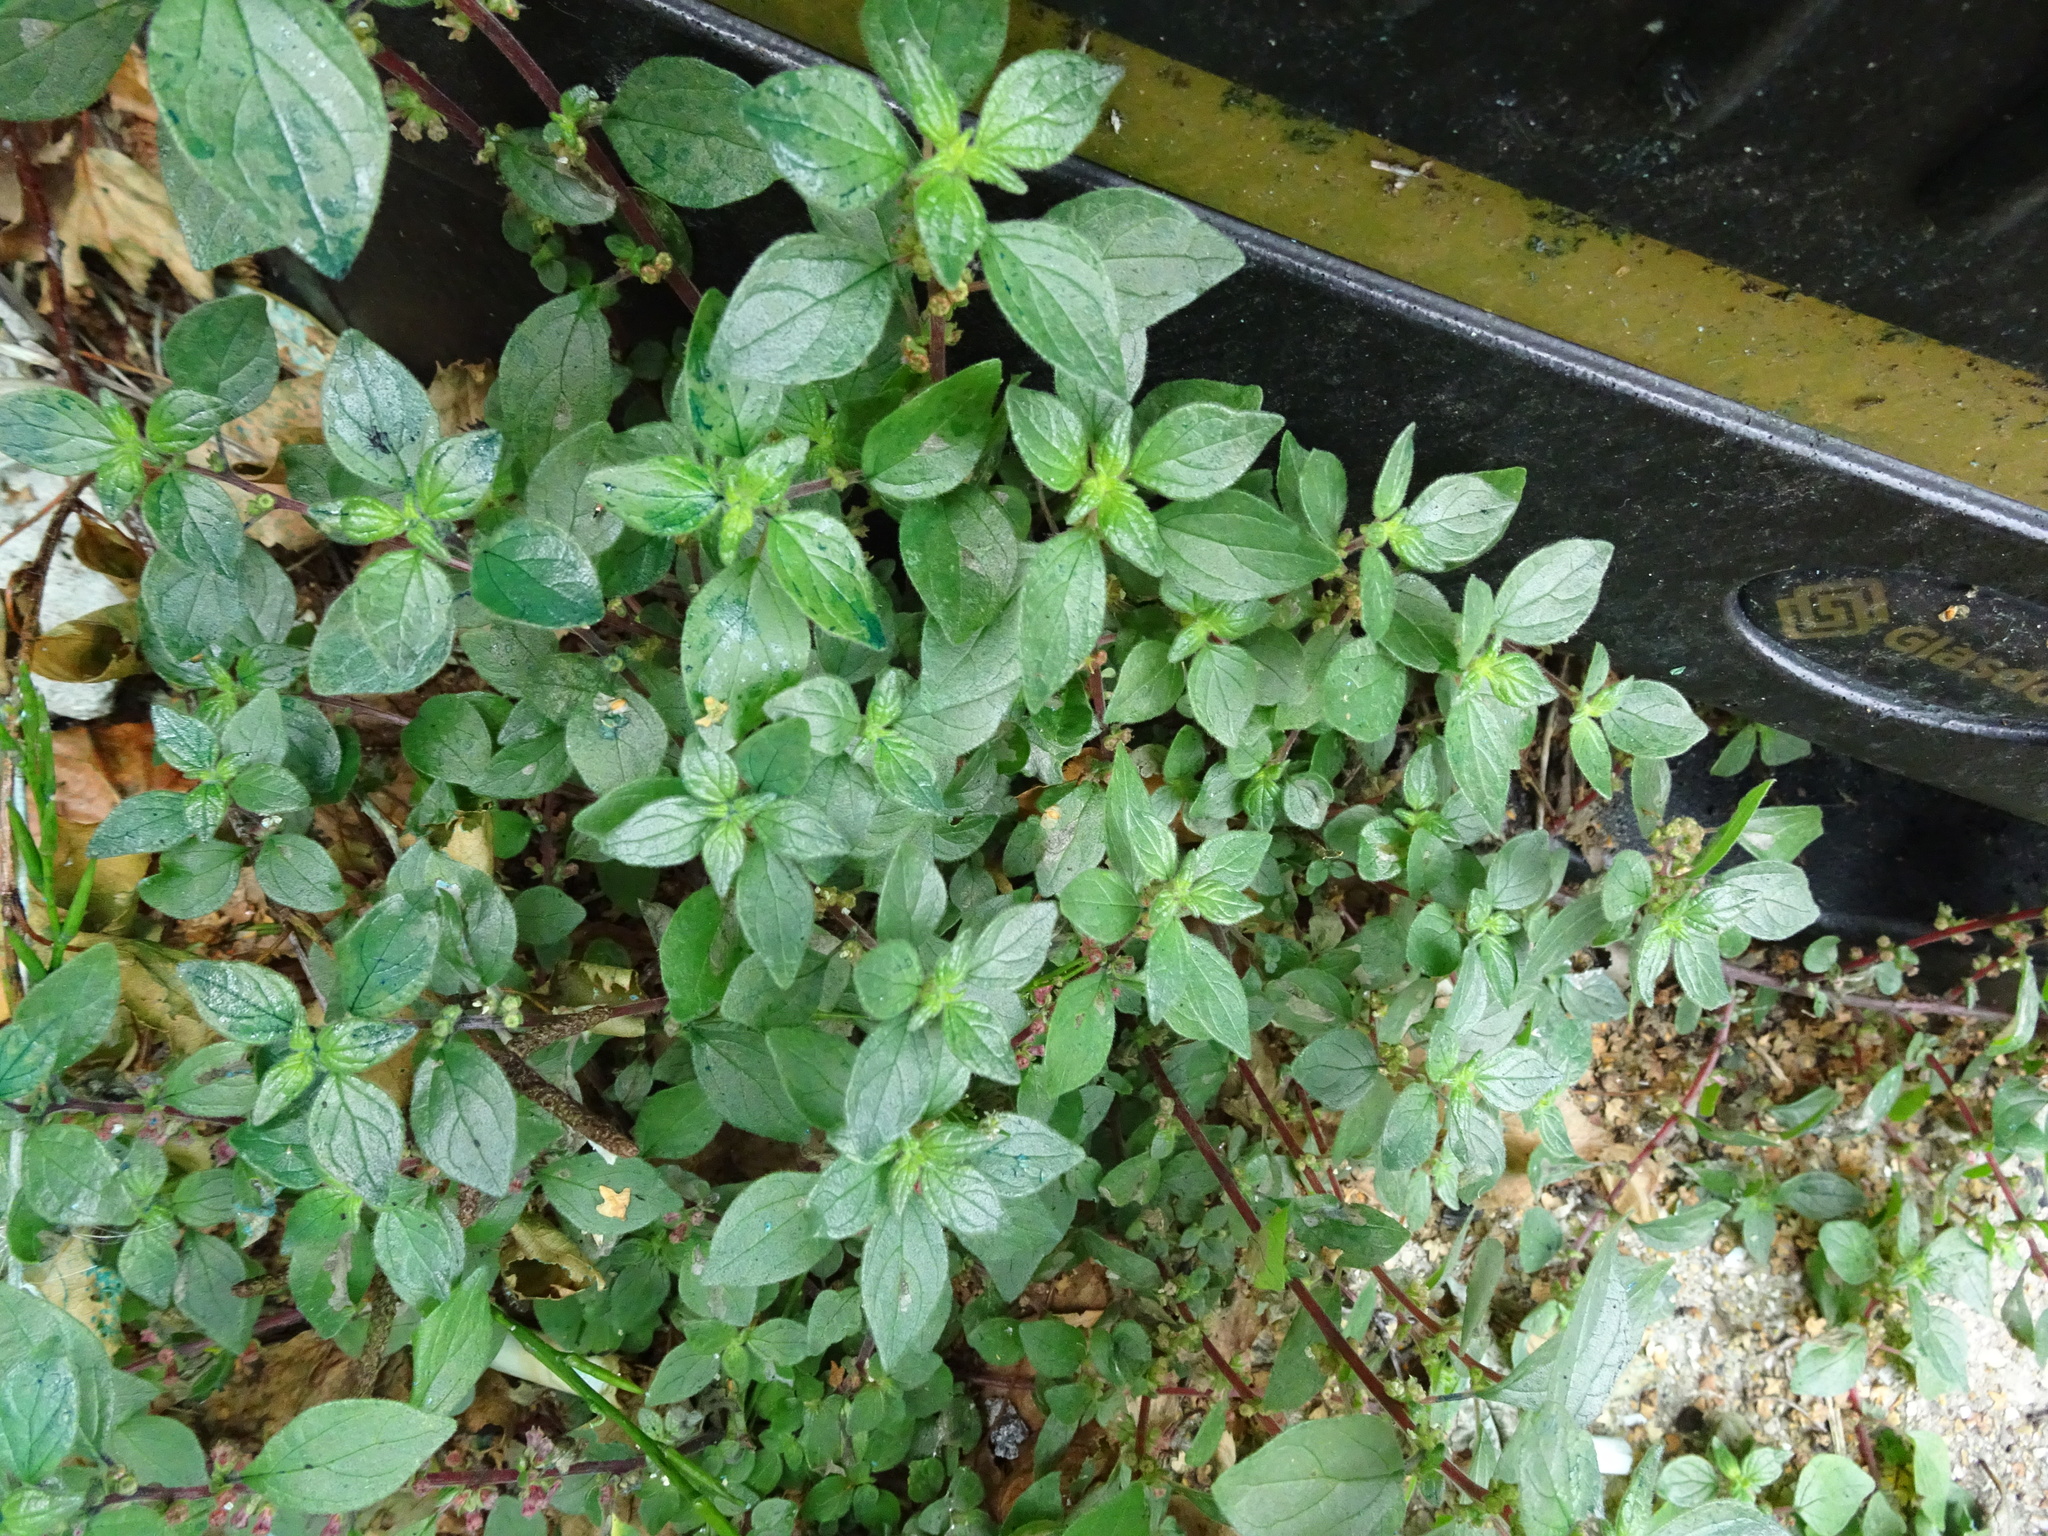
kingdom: Plantae
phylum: Tracheophyta
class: Magnoliopsida
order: Rosales
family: Urticaceae
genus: Parietaria
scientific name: Parietaria judaica
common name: Pellitory-of-the-wall
